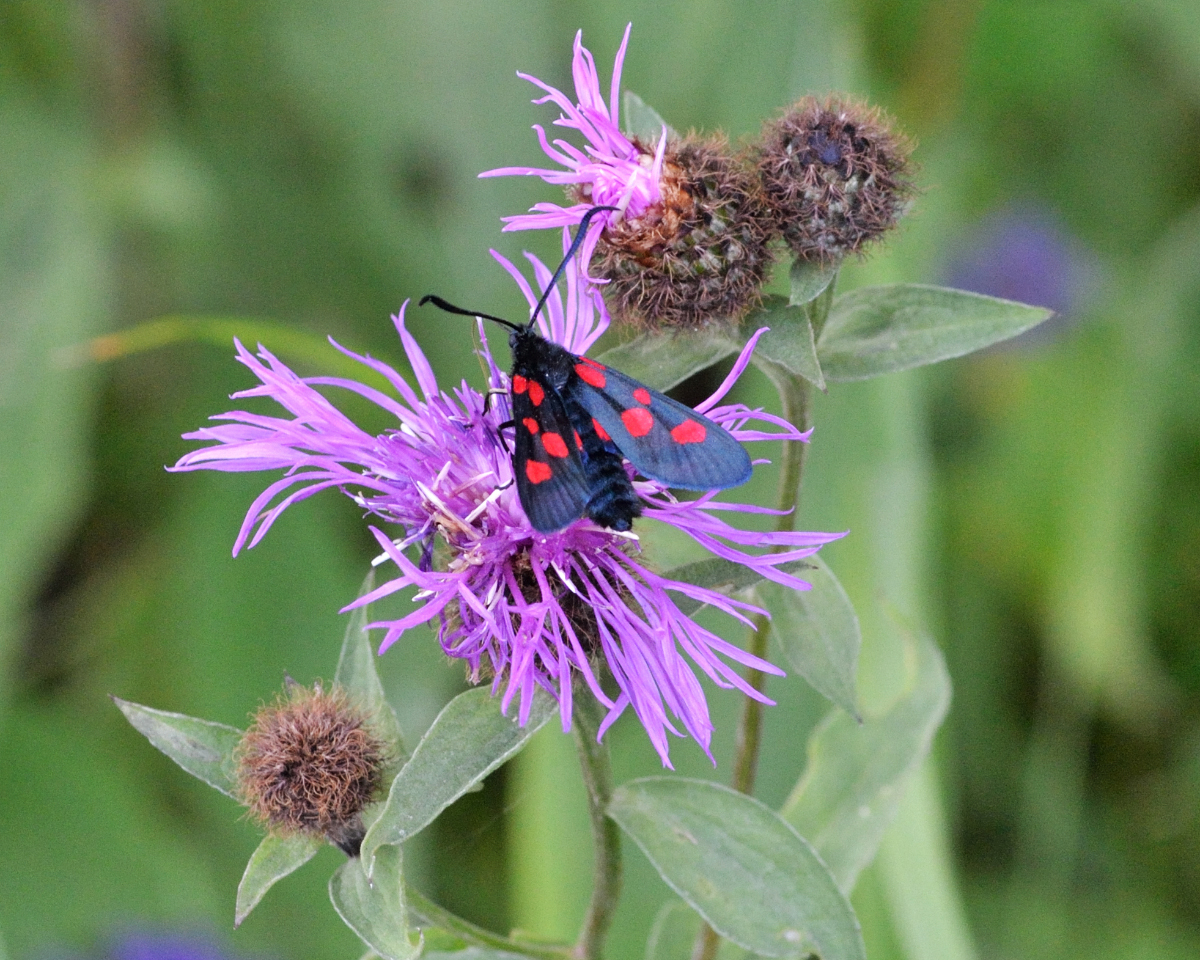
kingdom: Animalia
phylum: Arthropoda
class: Insecta
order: Lepidoptera
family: Zygaenidae
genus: Zygaena
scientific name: Zygaena lonicerae
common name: Narrow-bordered five-spot burnet
